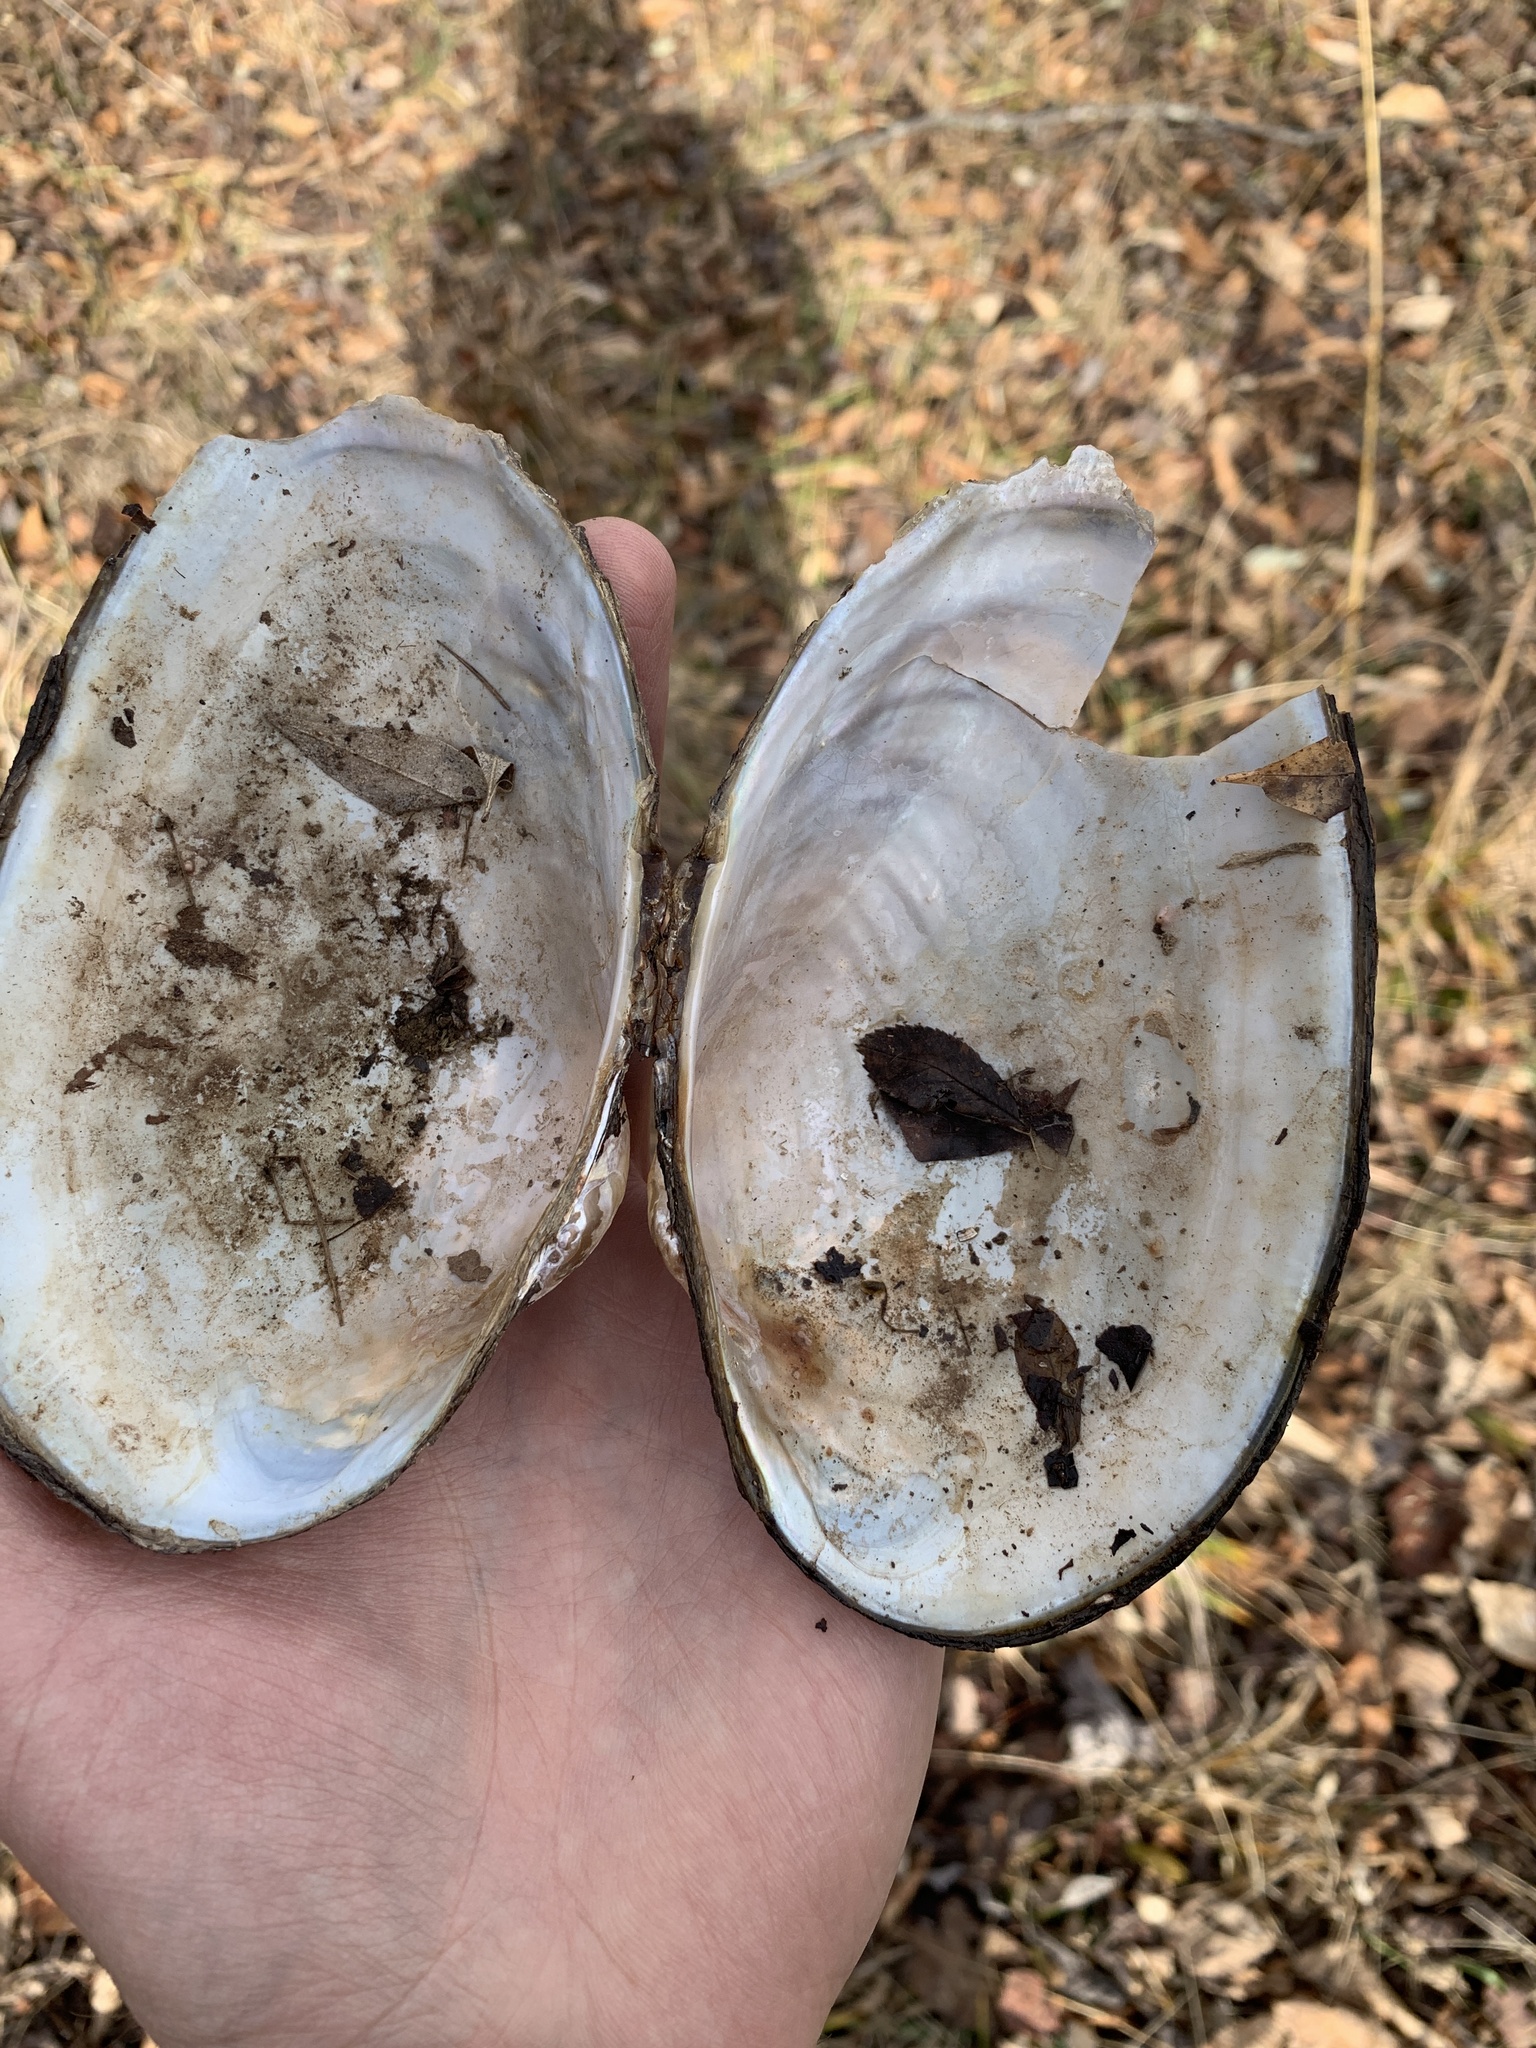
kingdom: Animalia
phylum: Mollusca
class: Bivalvia
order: Unionida
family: Unionidae
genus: Pyganodon
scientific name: Pyganodon grandis
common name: Giant floater
